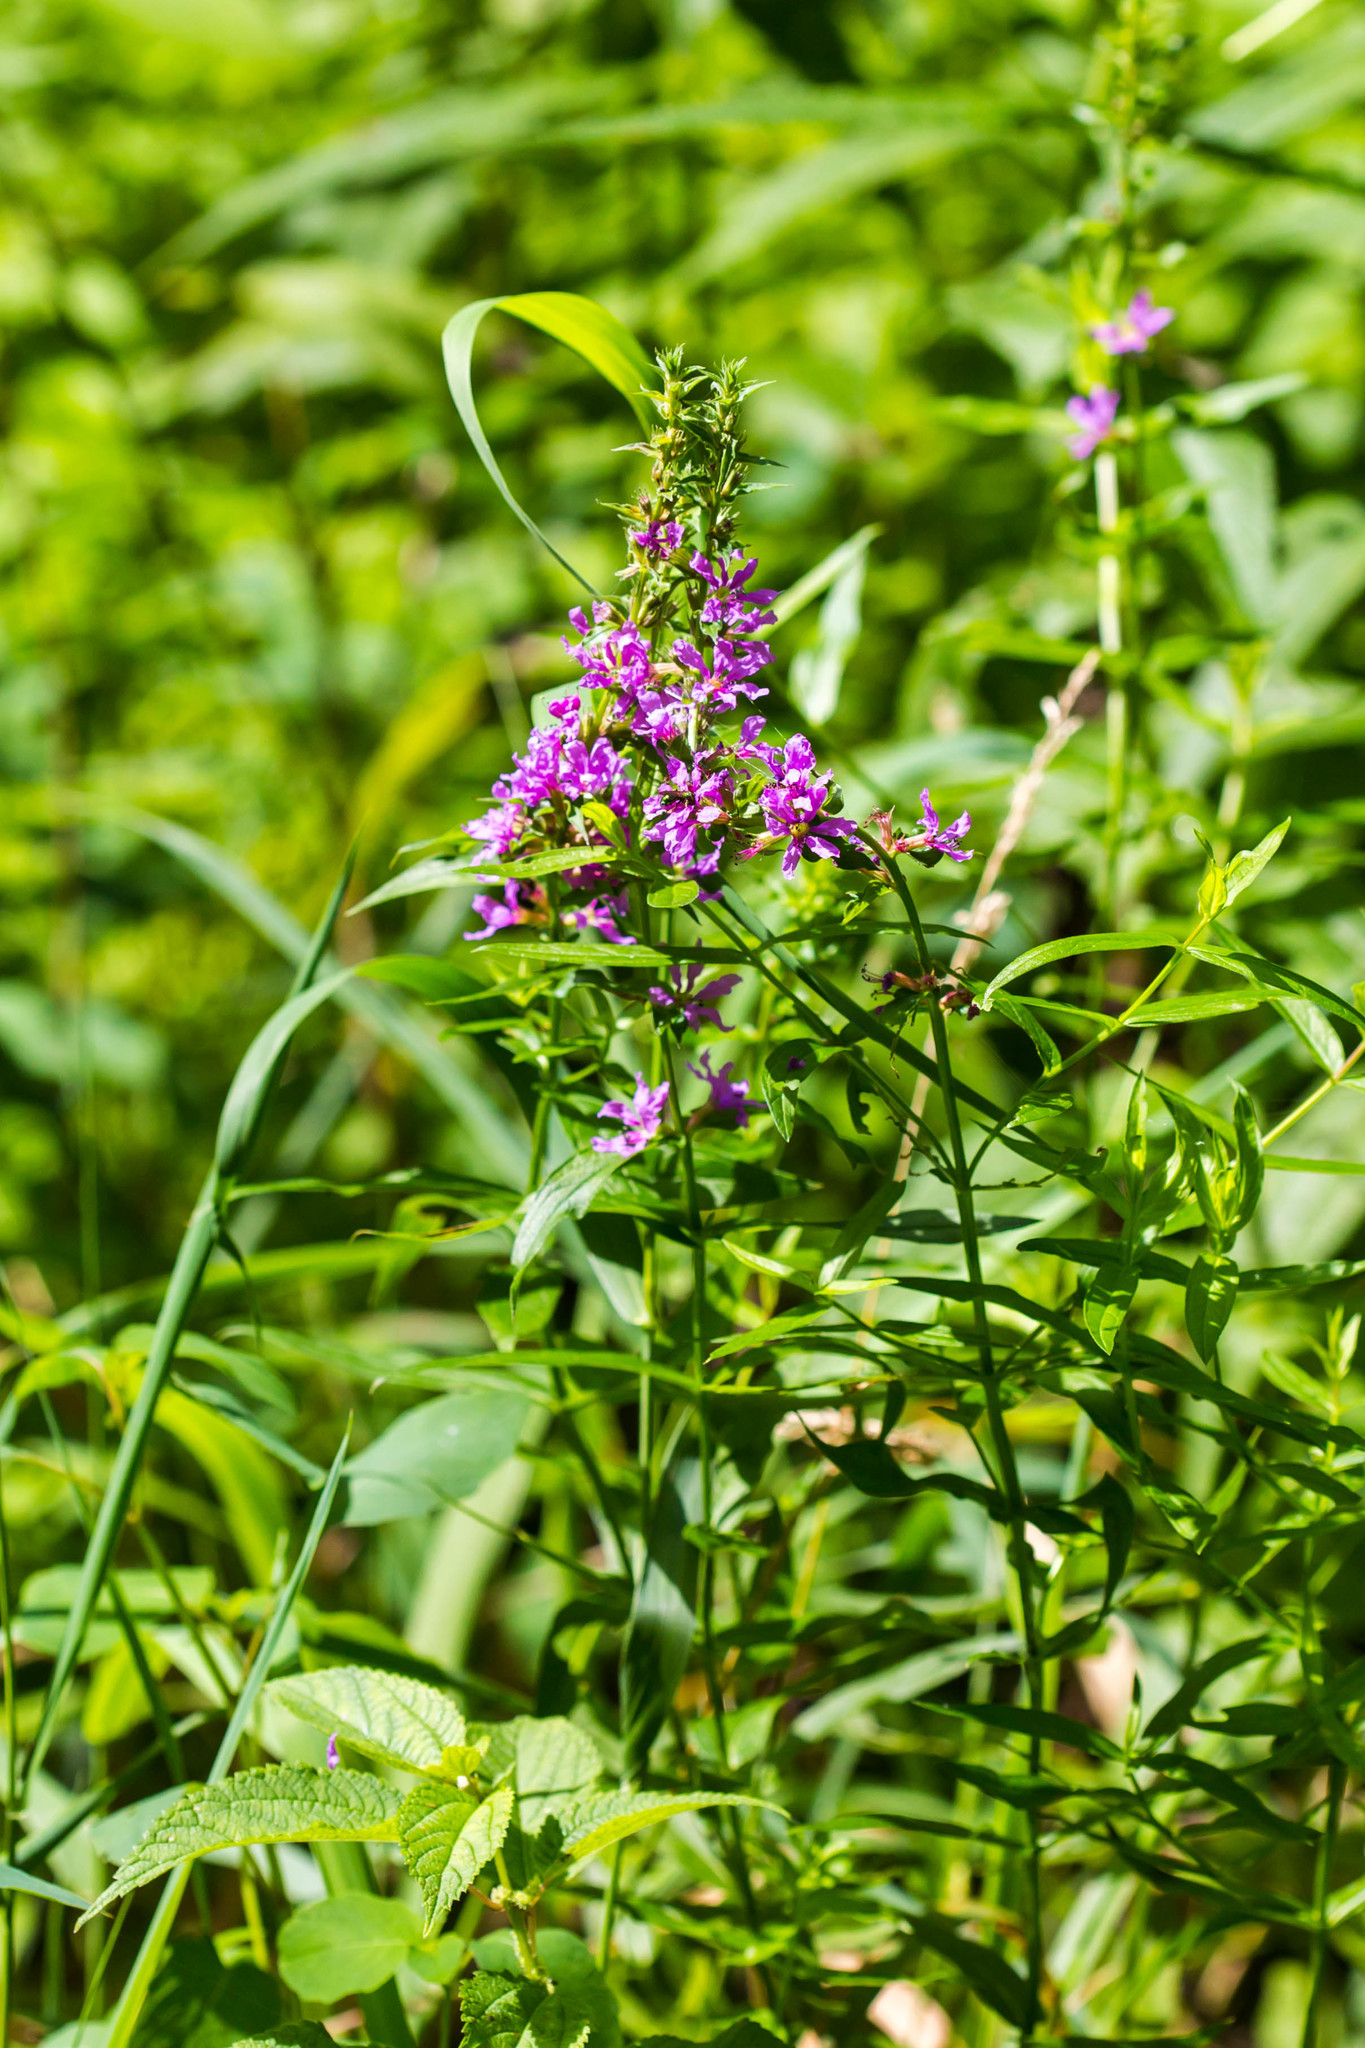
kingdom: Plantae
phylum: Tracheophyta
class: Magnoliopsida
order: Myrtales
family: Lythraceae
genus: Lythrum
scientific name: Lythrum salicaria
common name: Purple loosestrife
